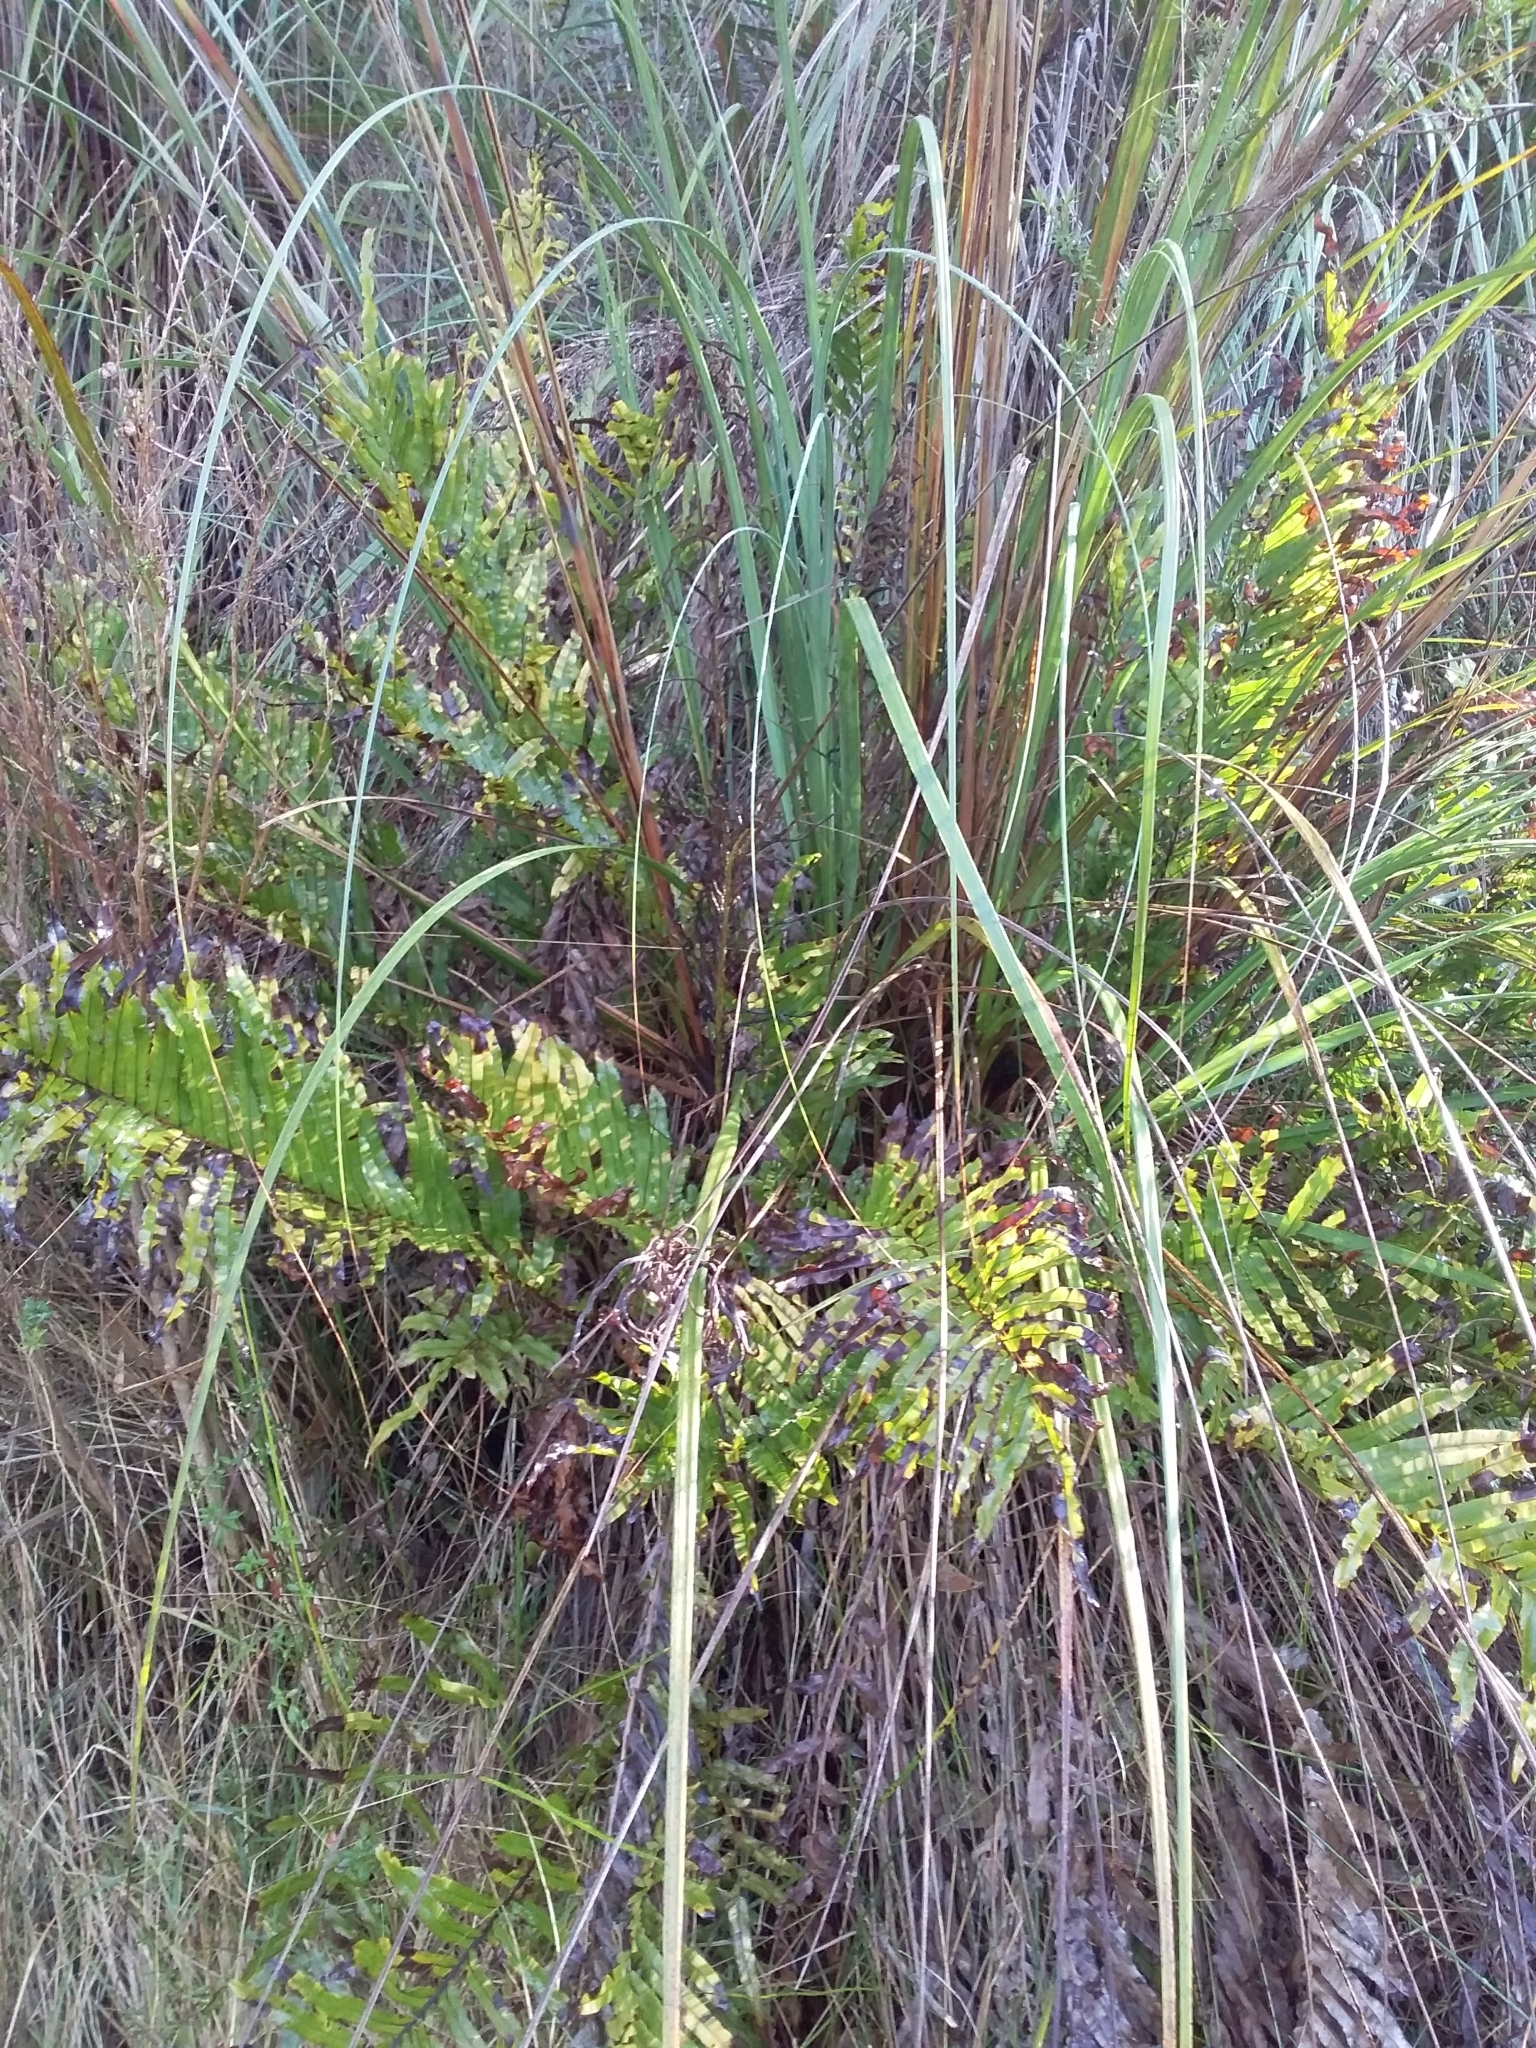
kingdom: Plantae
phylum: Tracheophyta
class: Polypodiopsida
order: Polypodiales
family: Blechnaceae
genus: Parablechnum
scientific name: Parablechnum minus
